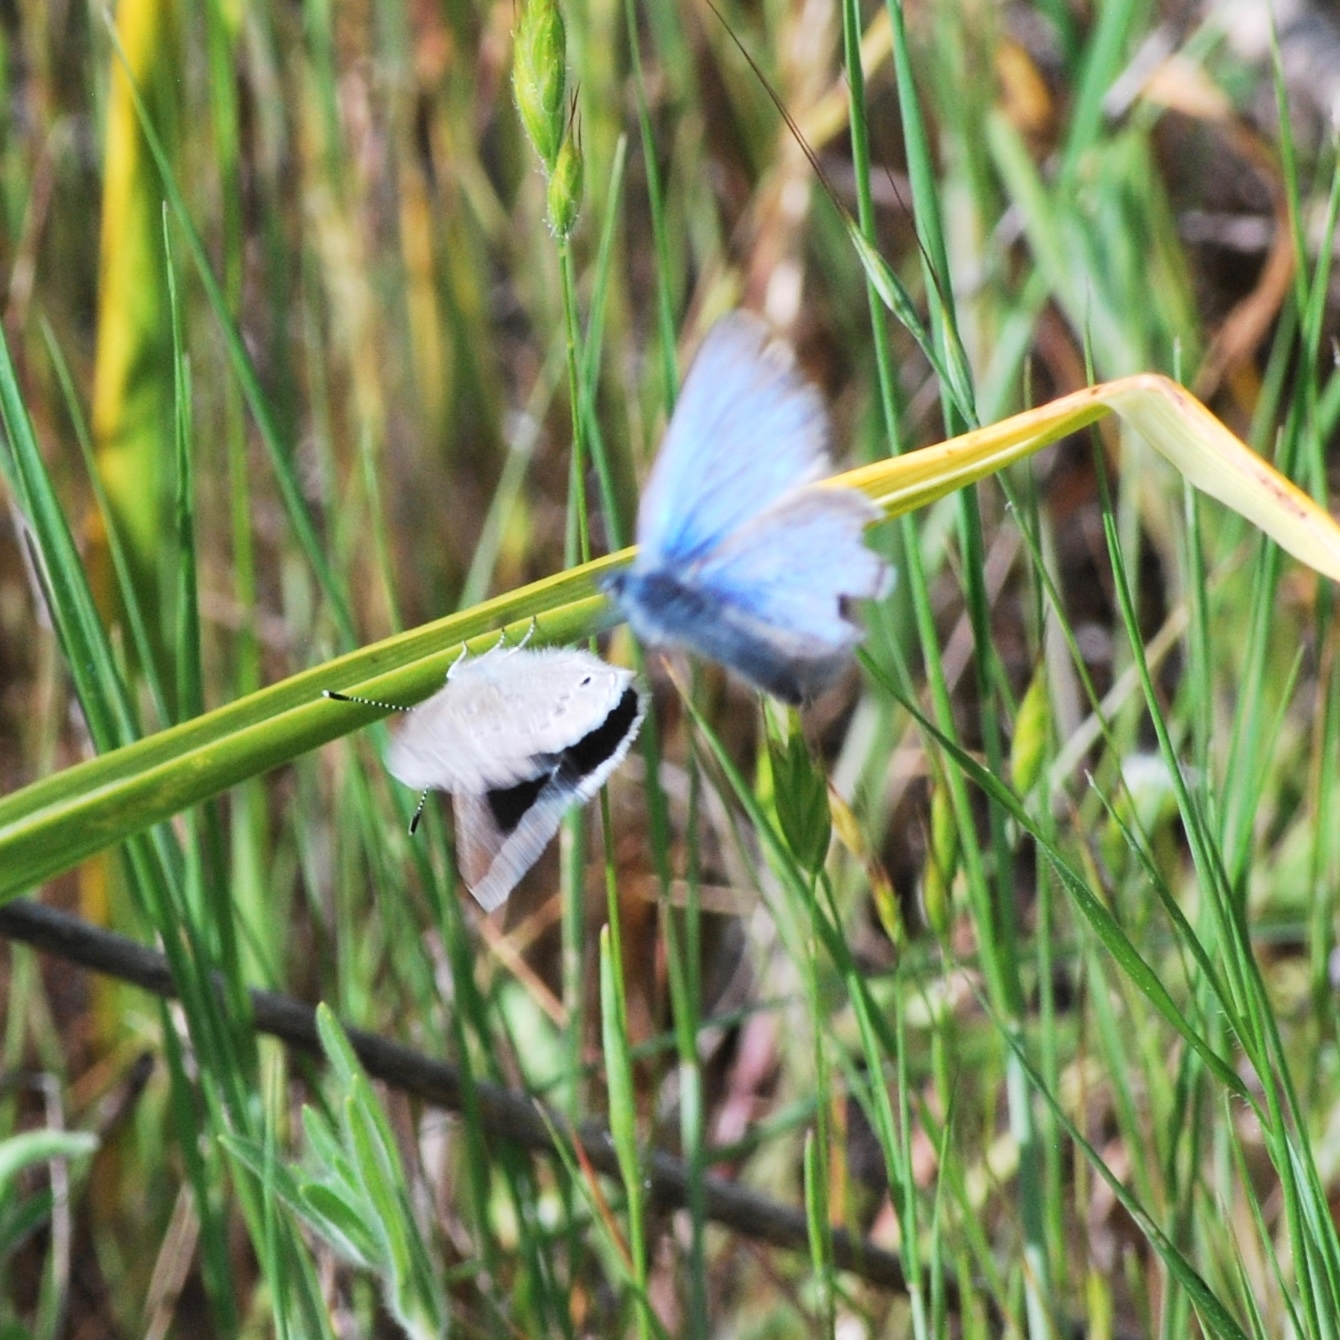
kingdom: Animalia
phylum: Arthropoda
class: Insecta
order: Lepidoptera
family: Lycaenidae
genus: Glaucopsyche
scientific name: Glaucopsyche lygdamus
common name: Silvery blue
